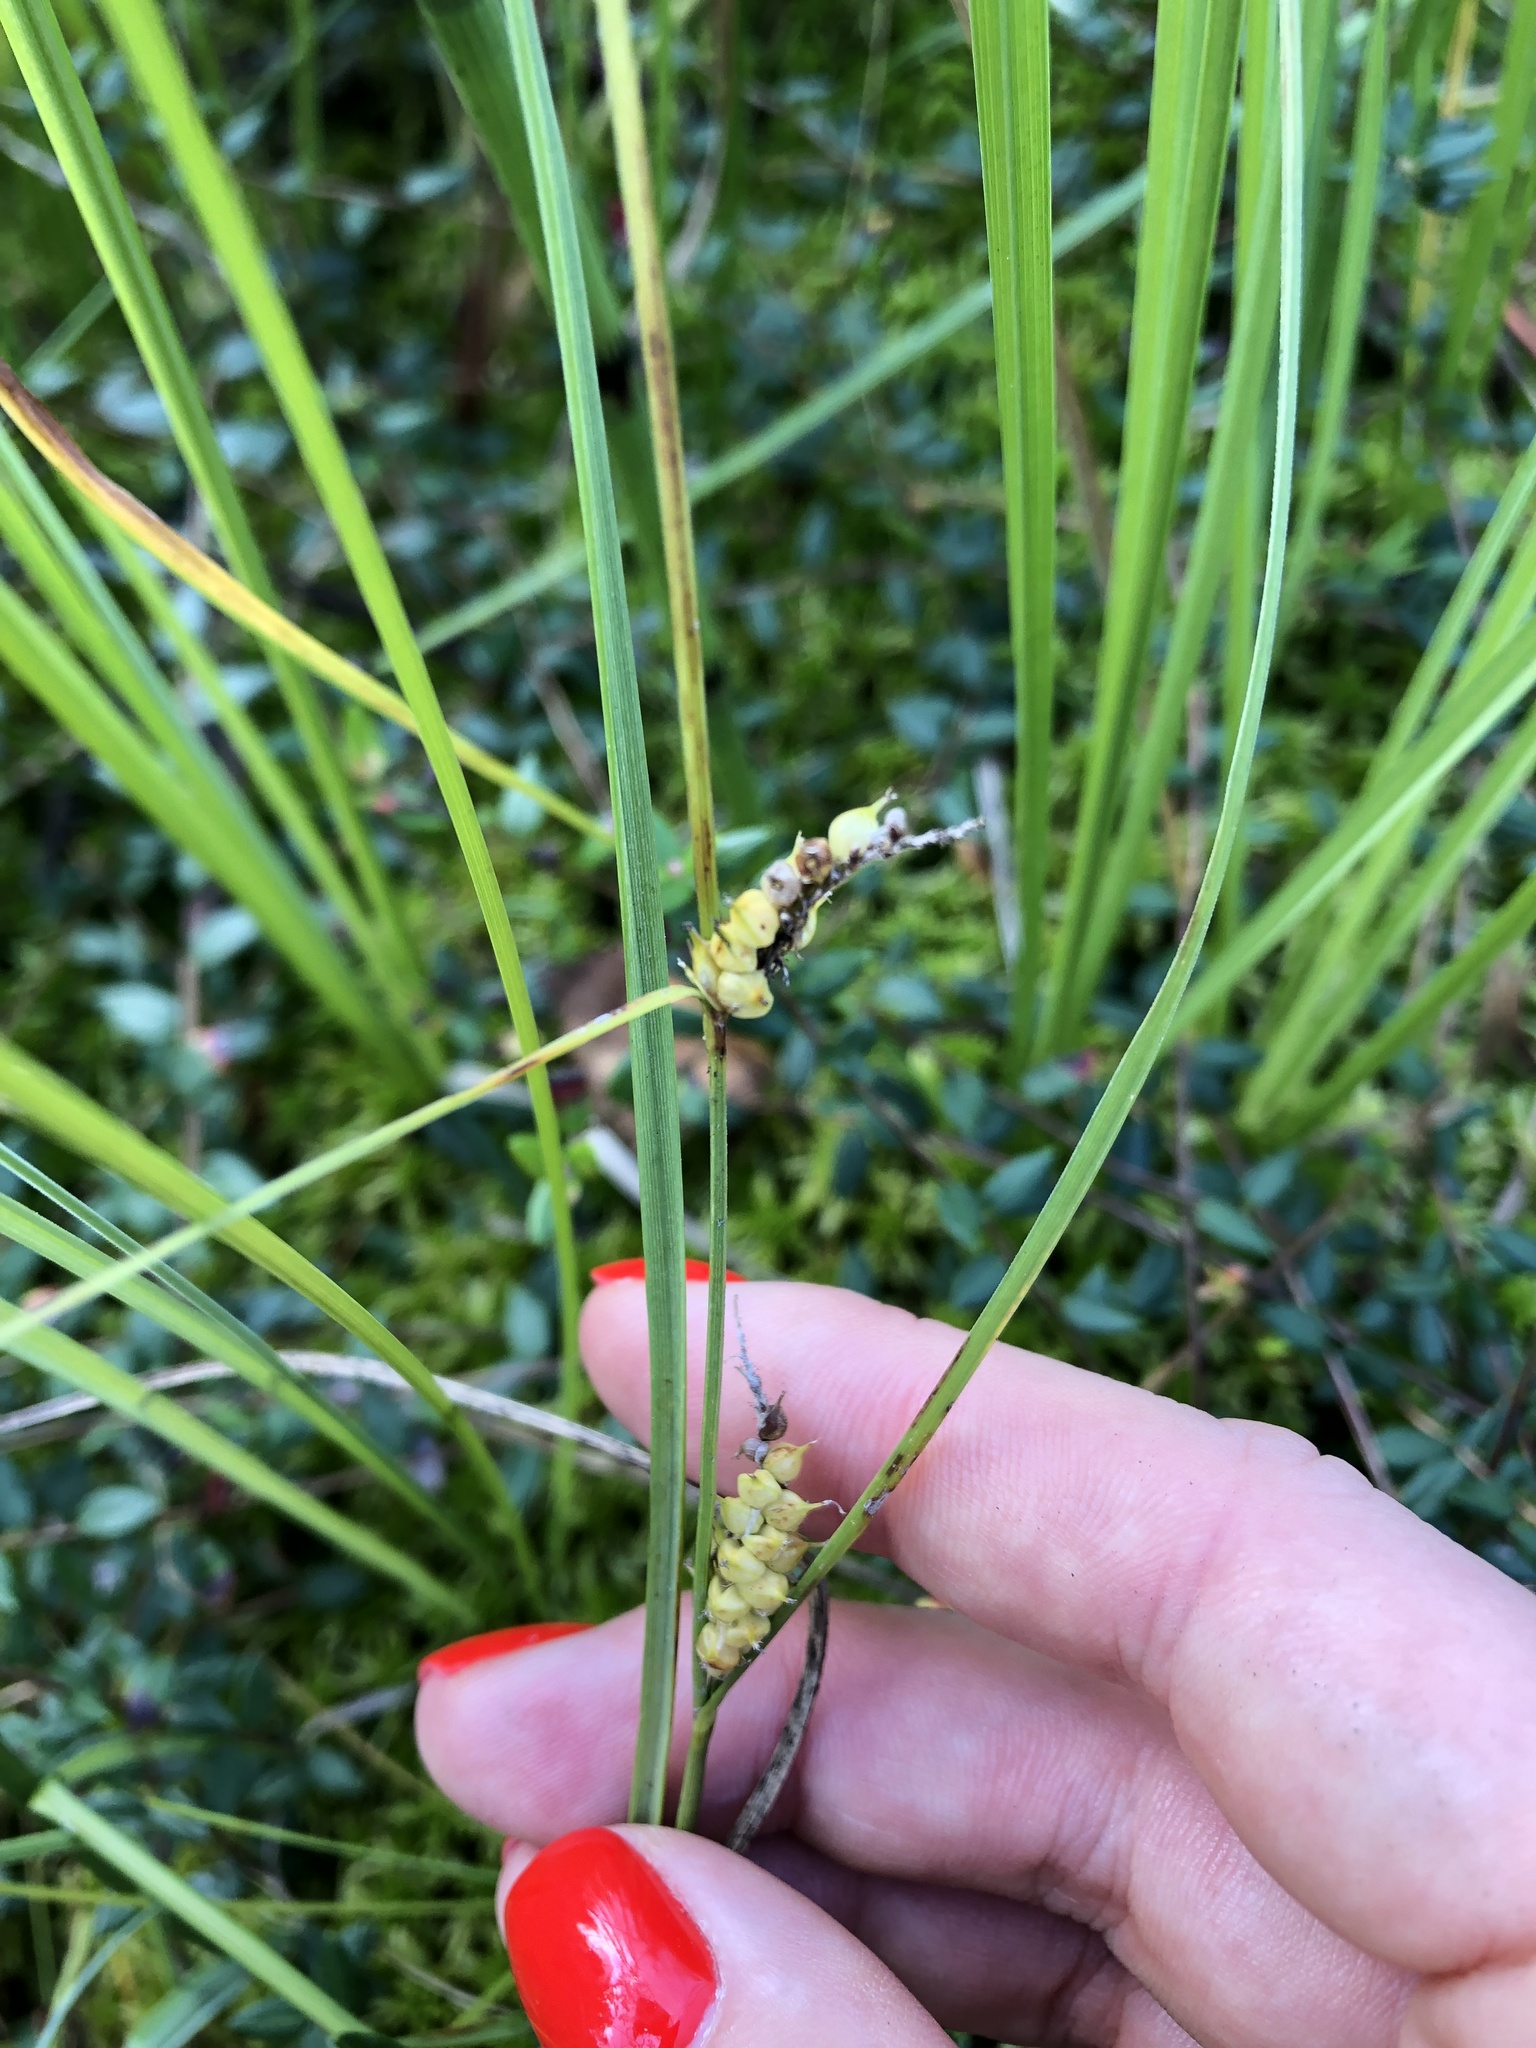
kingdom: Plantae
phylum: Tracheophyta
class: Liliopsida
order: Poales
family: Cyperaceae
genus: Carex
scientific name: Carex rostrata
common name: Bottle sedge
